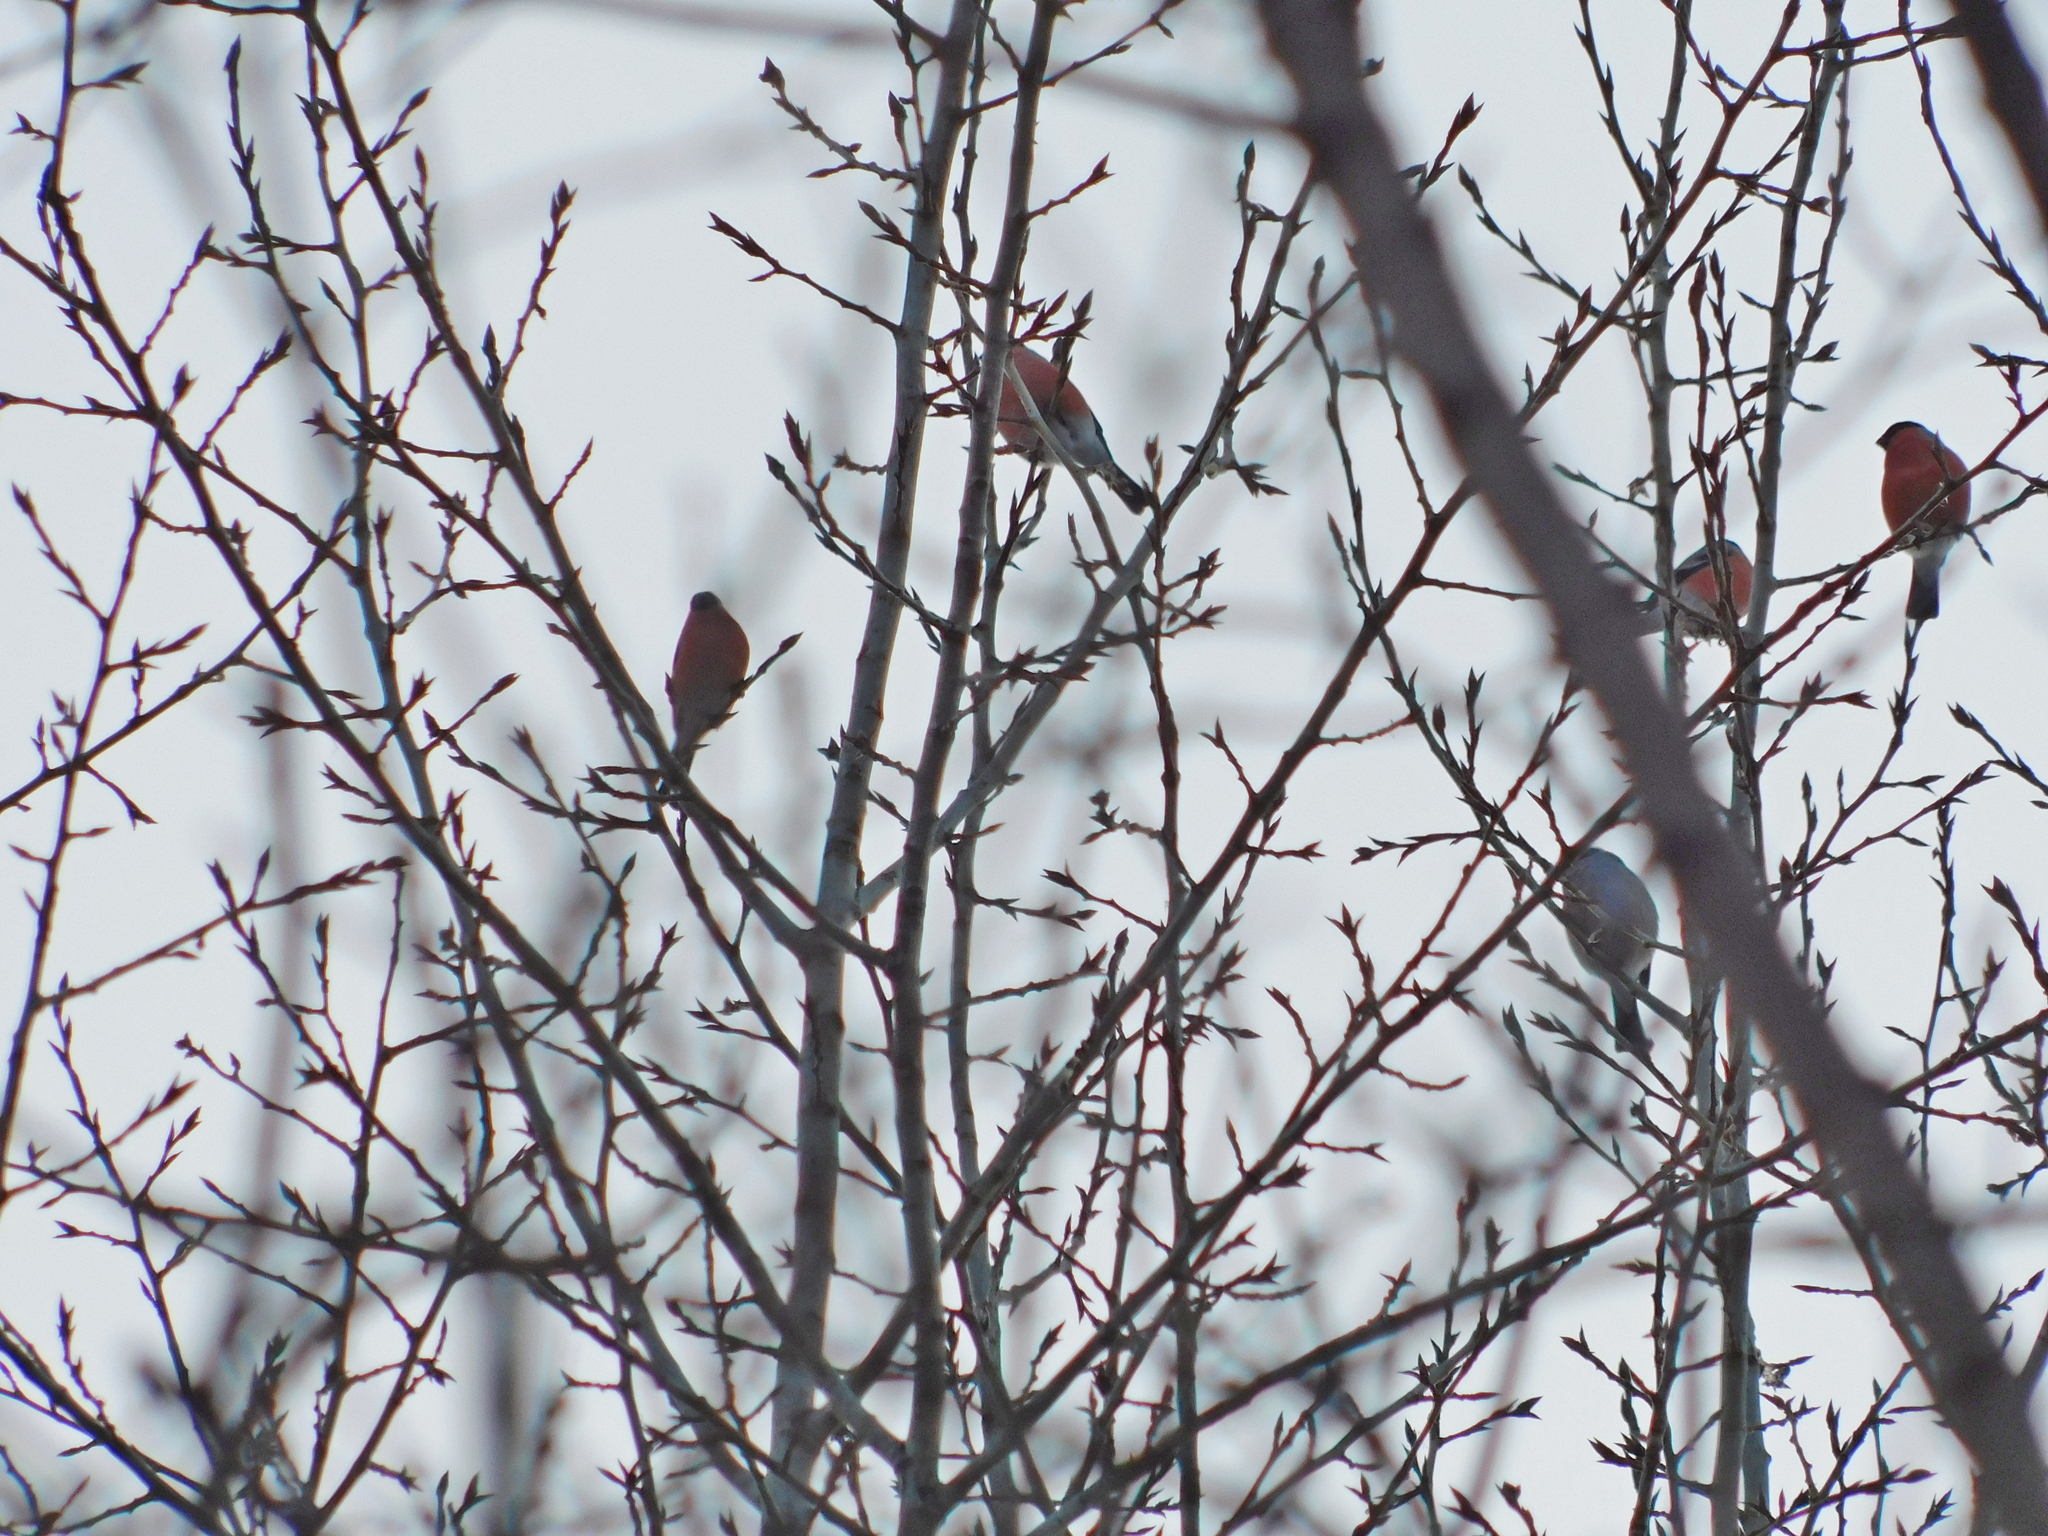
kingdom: Animalia
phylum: Chordata
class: Aves
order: Passeriformes
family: Fringillidae
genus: Pyrrhula
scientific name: Pyrrhula pyrrhula
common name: Eurasian bullfinch
